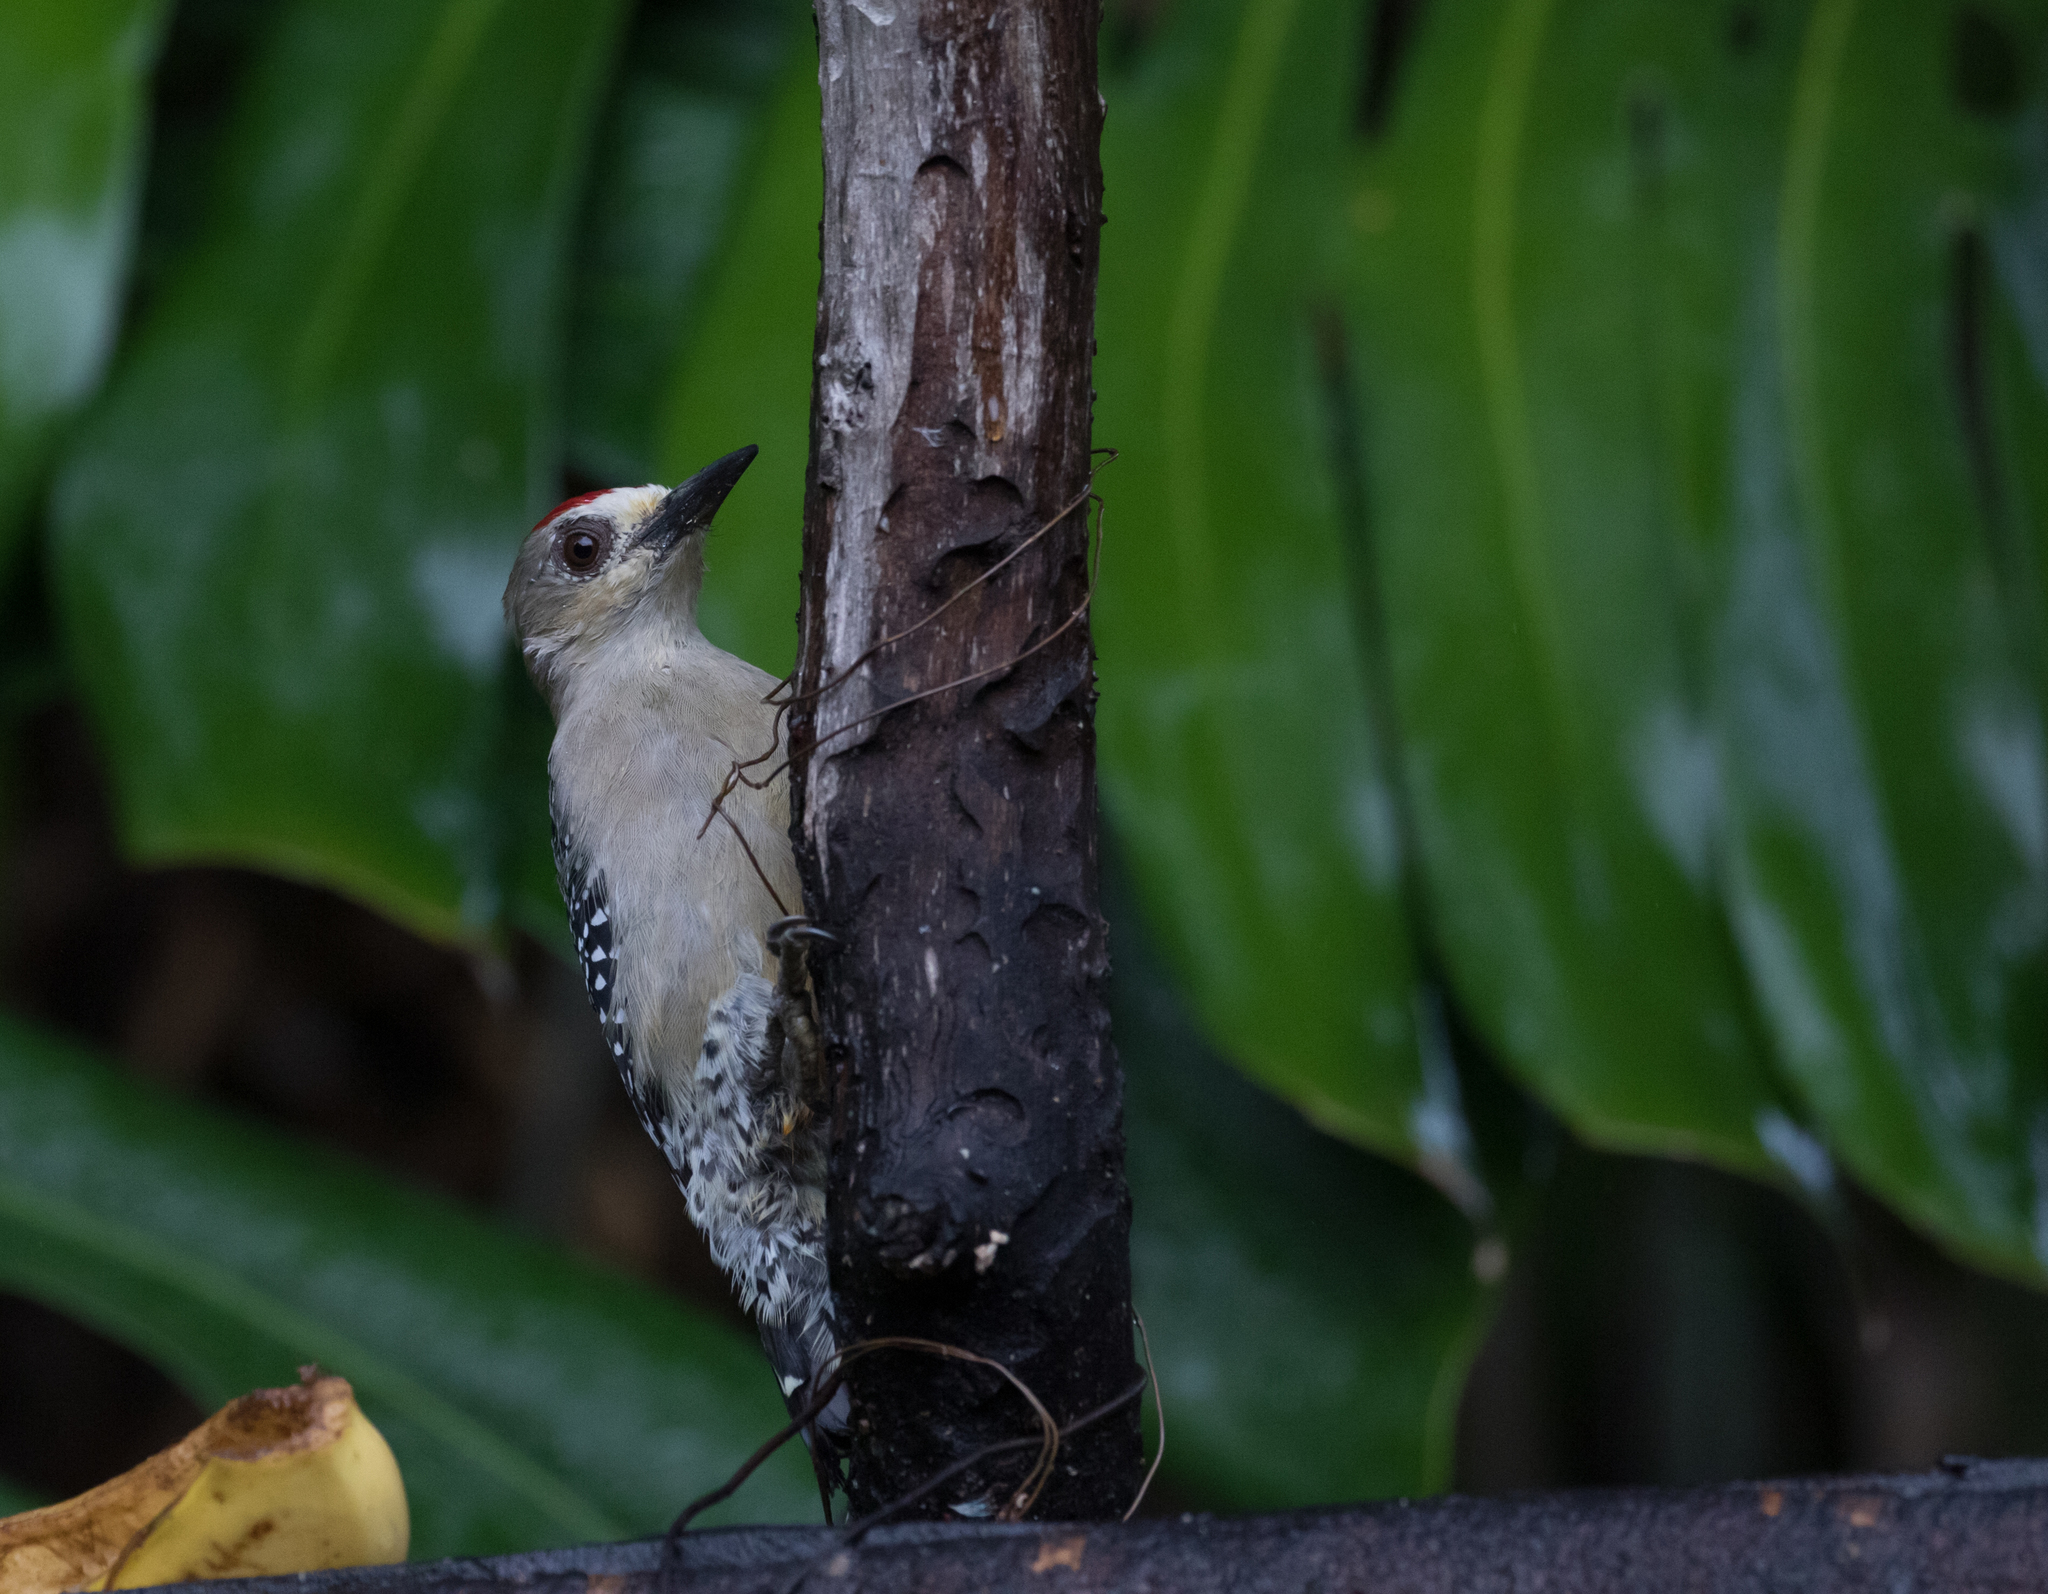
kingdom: Animalia
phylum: Chordata
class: Aves
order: Piciformes
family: Picidae
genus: Melanerpes
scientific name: Melanerpes rubricapillus
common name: Red-crowned woodpecker
